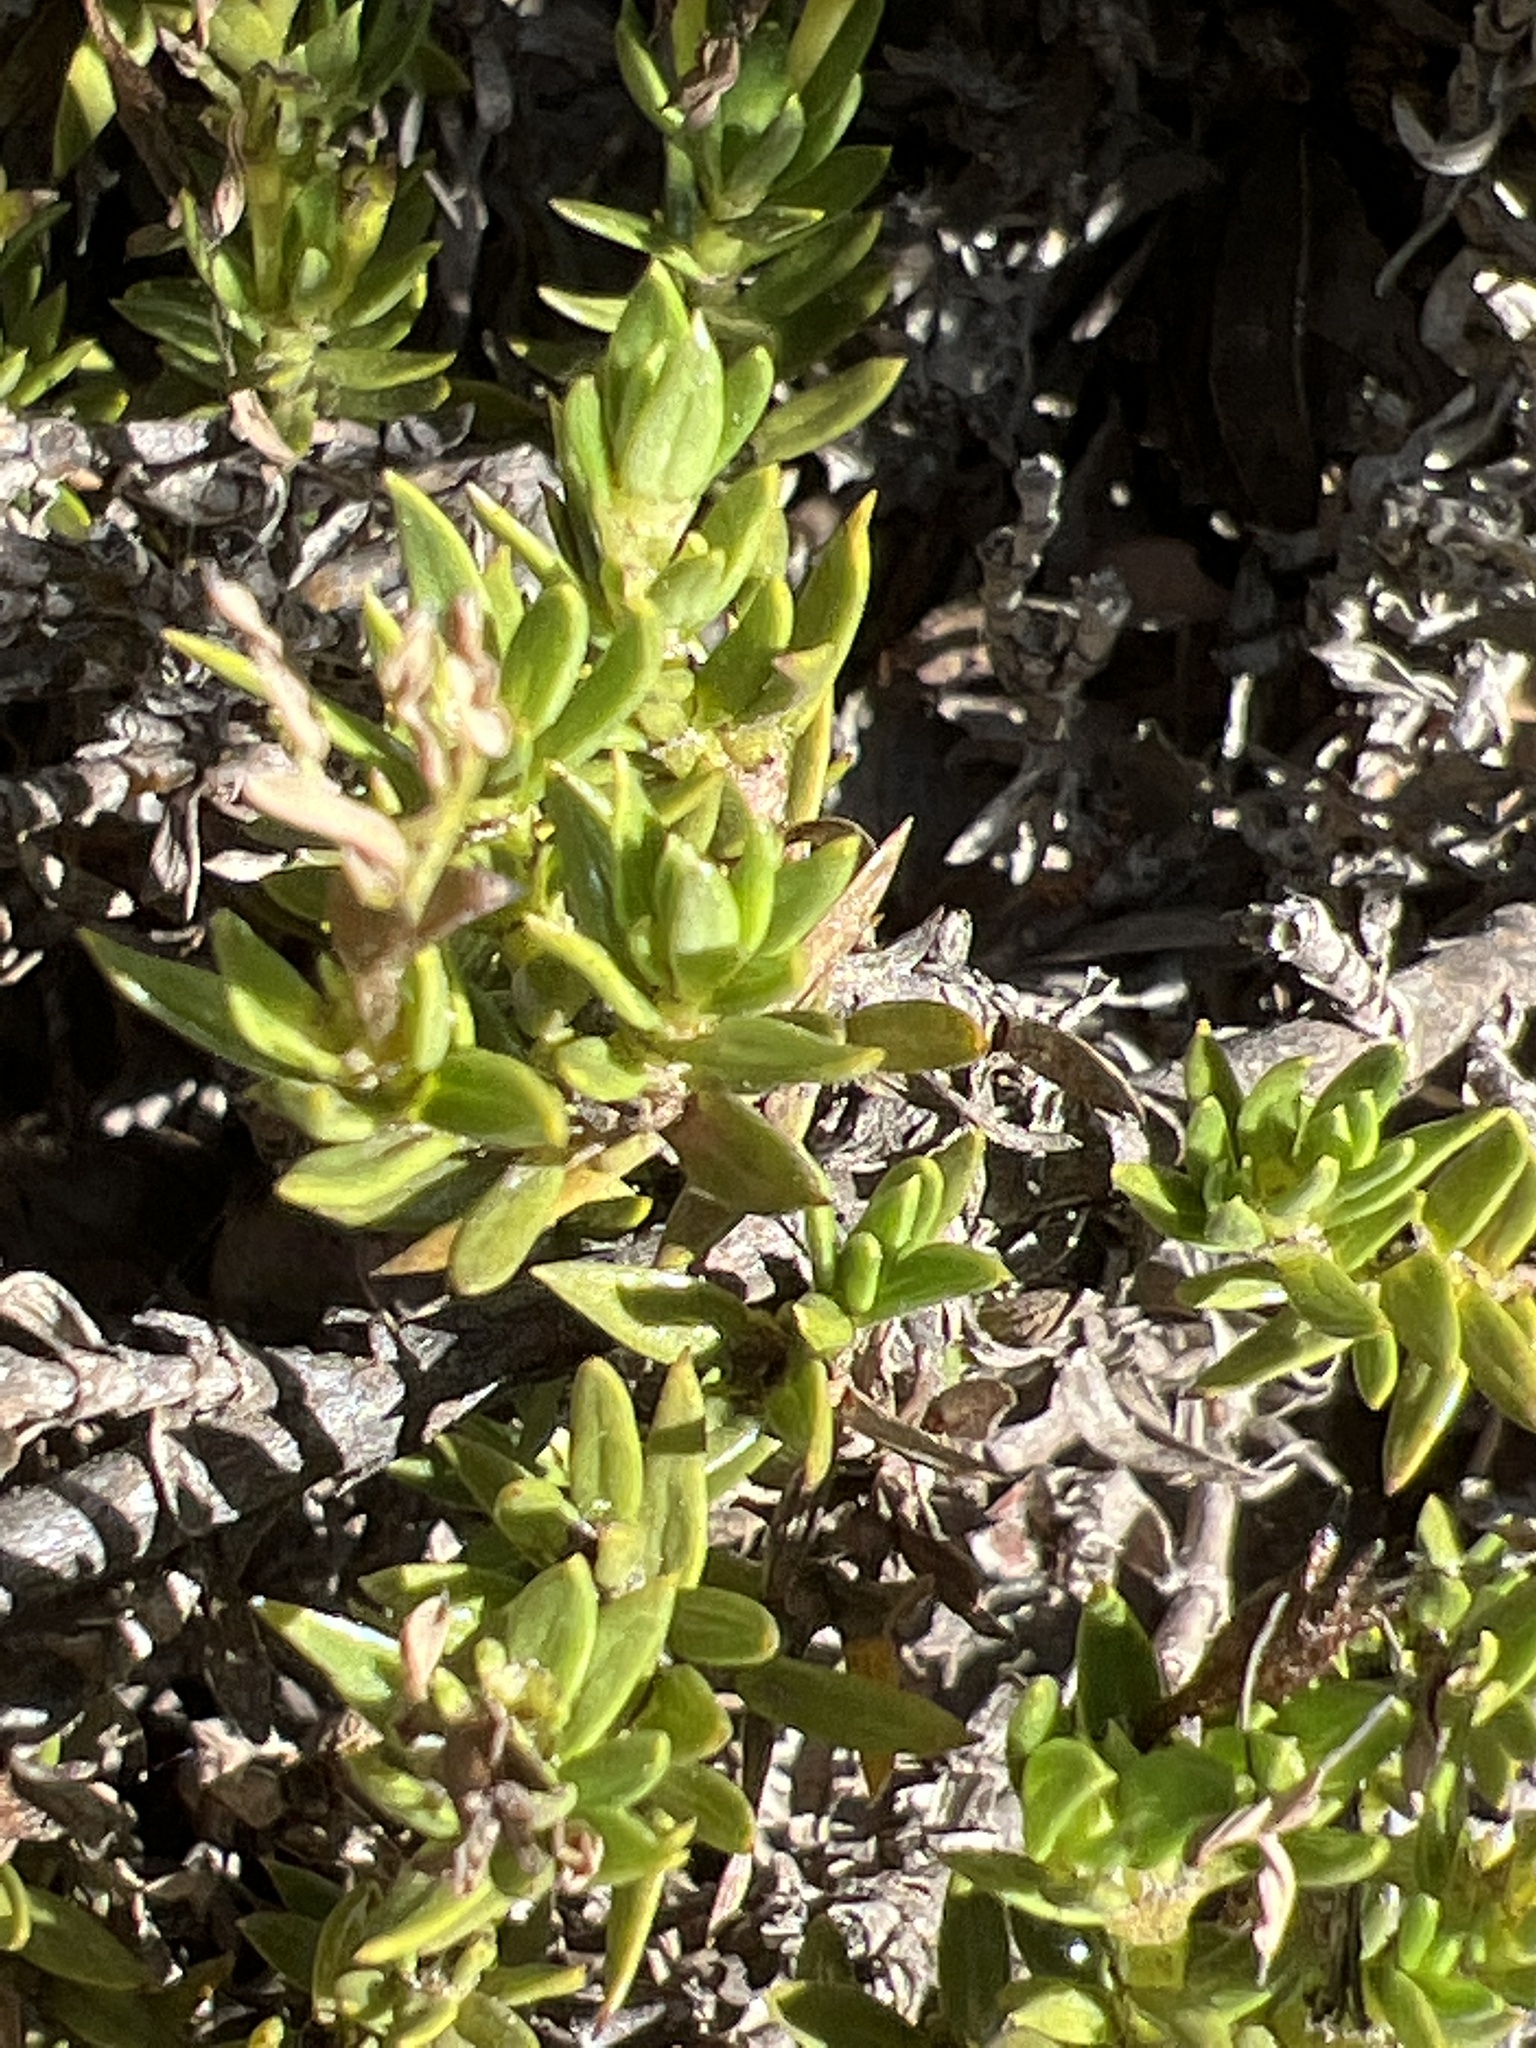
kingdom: Plantae
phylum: Tracheophyta
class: Magnoliopsida
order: Gentianales
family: Rubiaceae
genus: Coprosma
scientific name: Coprosma ernodeoides
